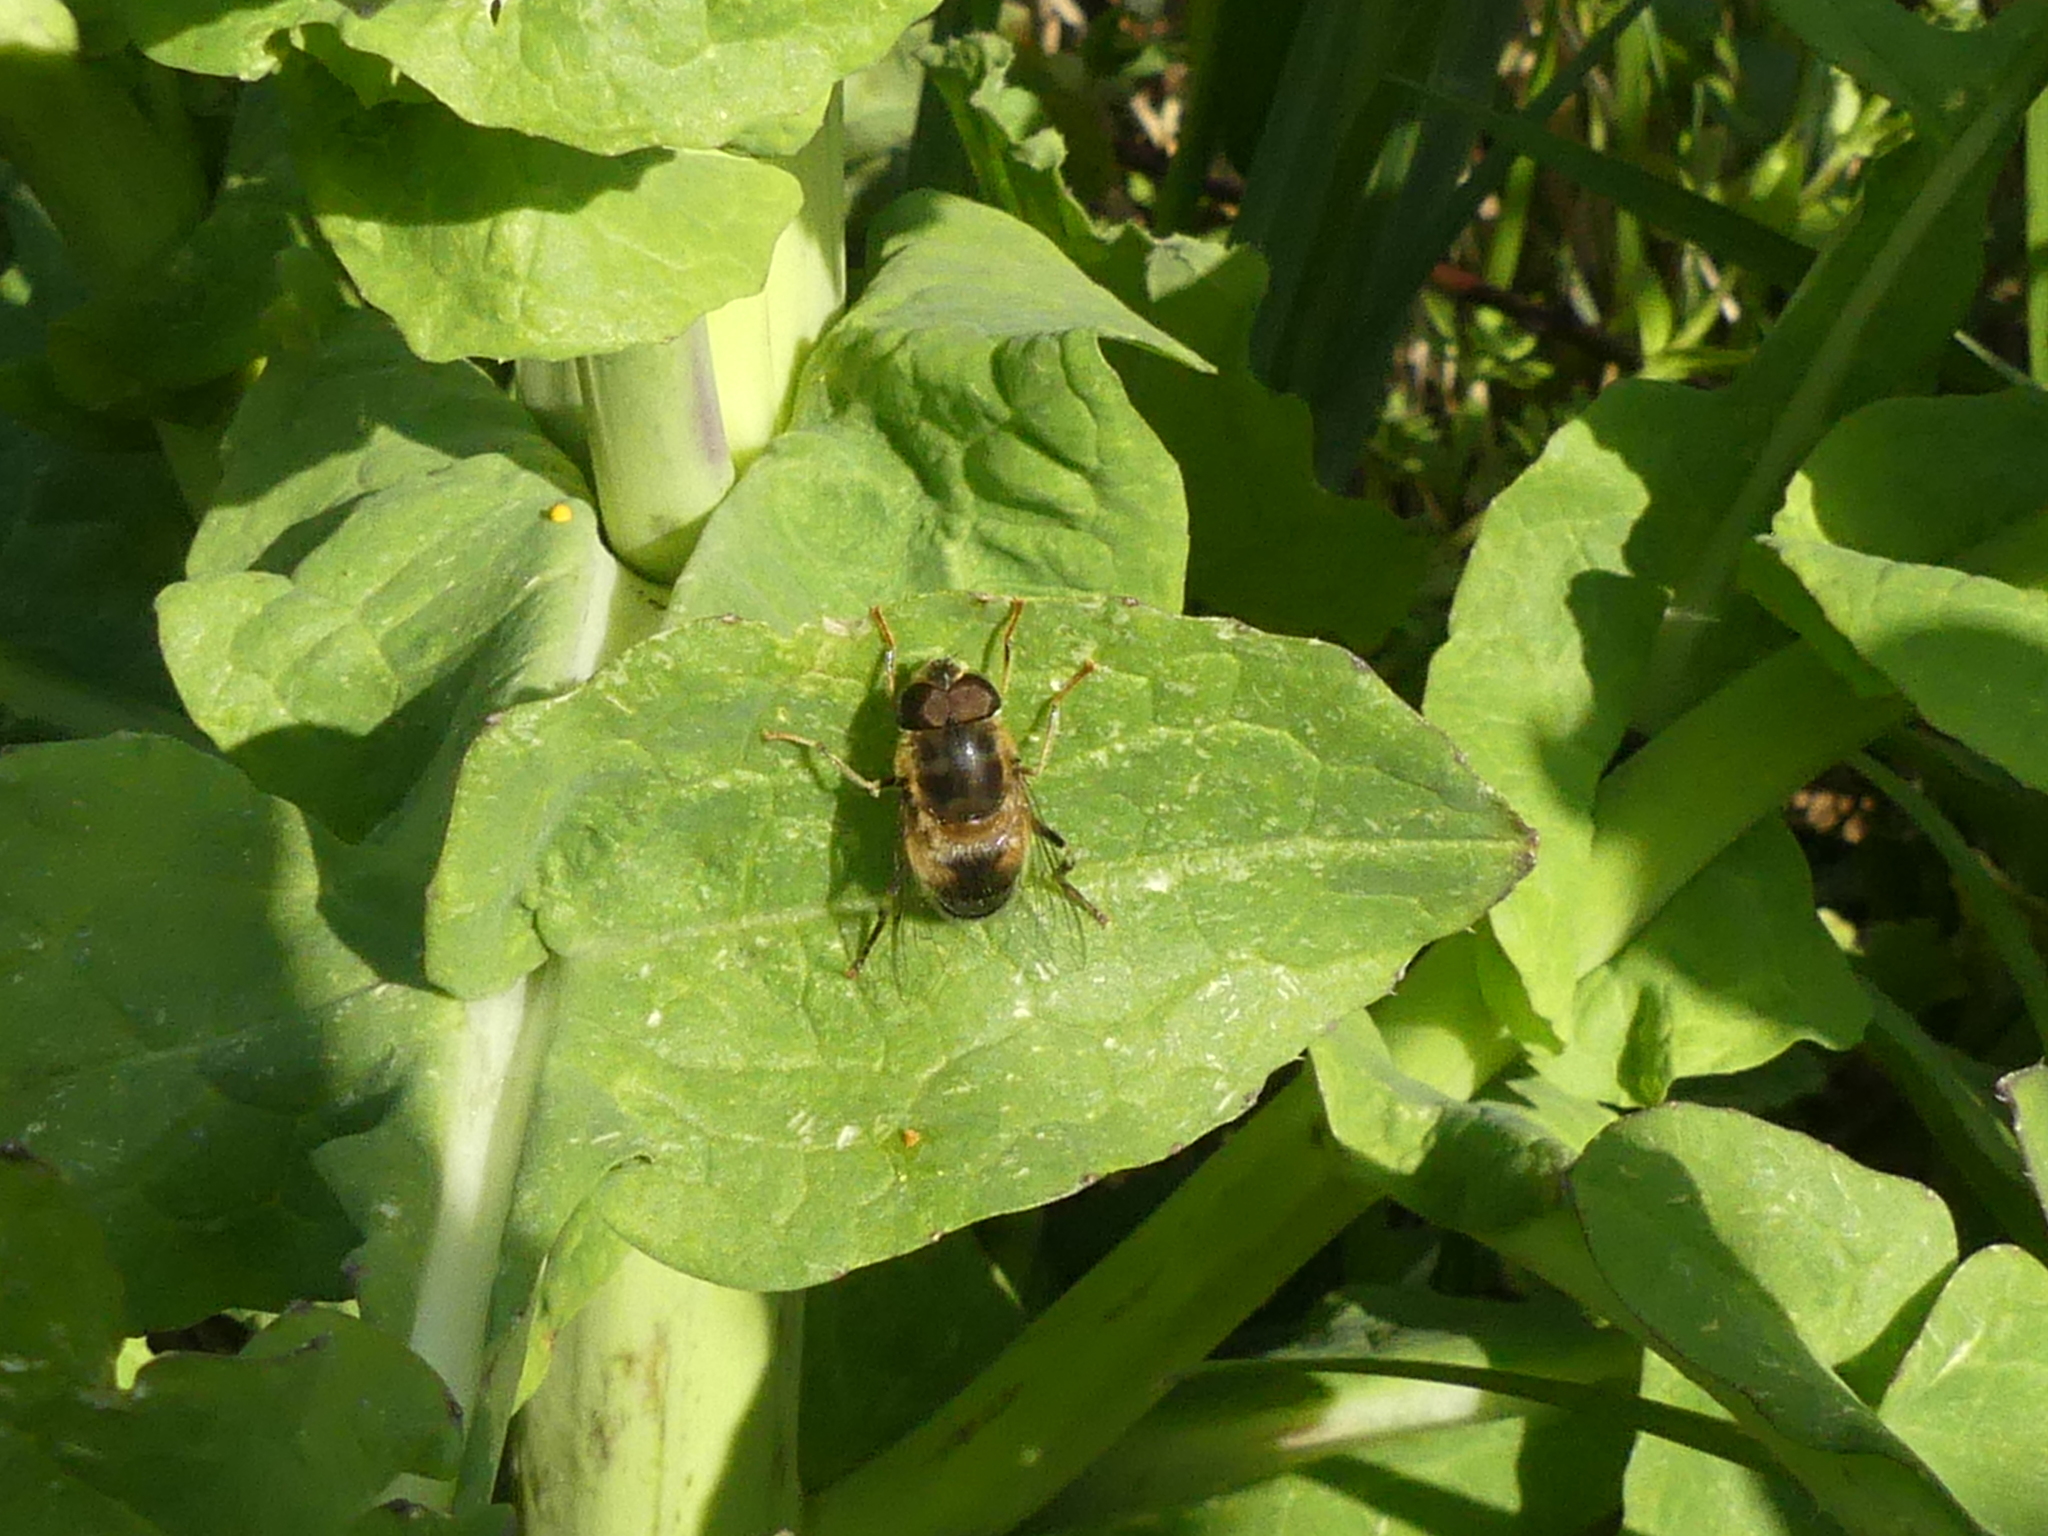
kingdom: Animalia
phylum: Arthropoda
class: Insecta
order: Diptera
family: Syrphidae
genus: Eristalis
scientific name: Eristalis pertinax
